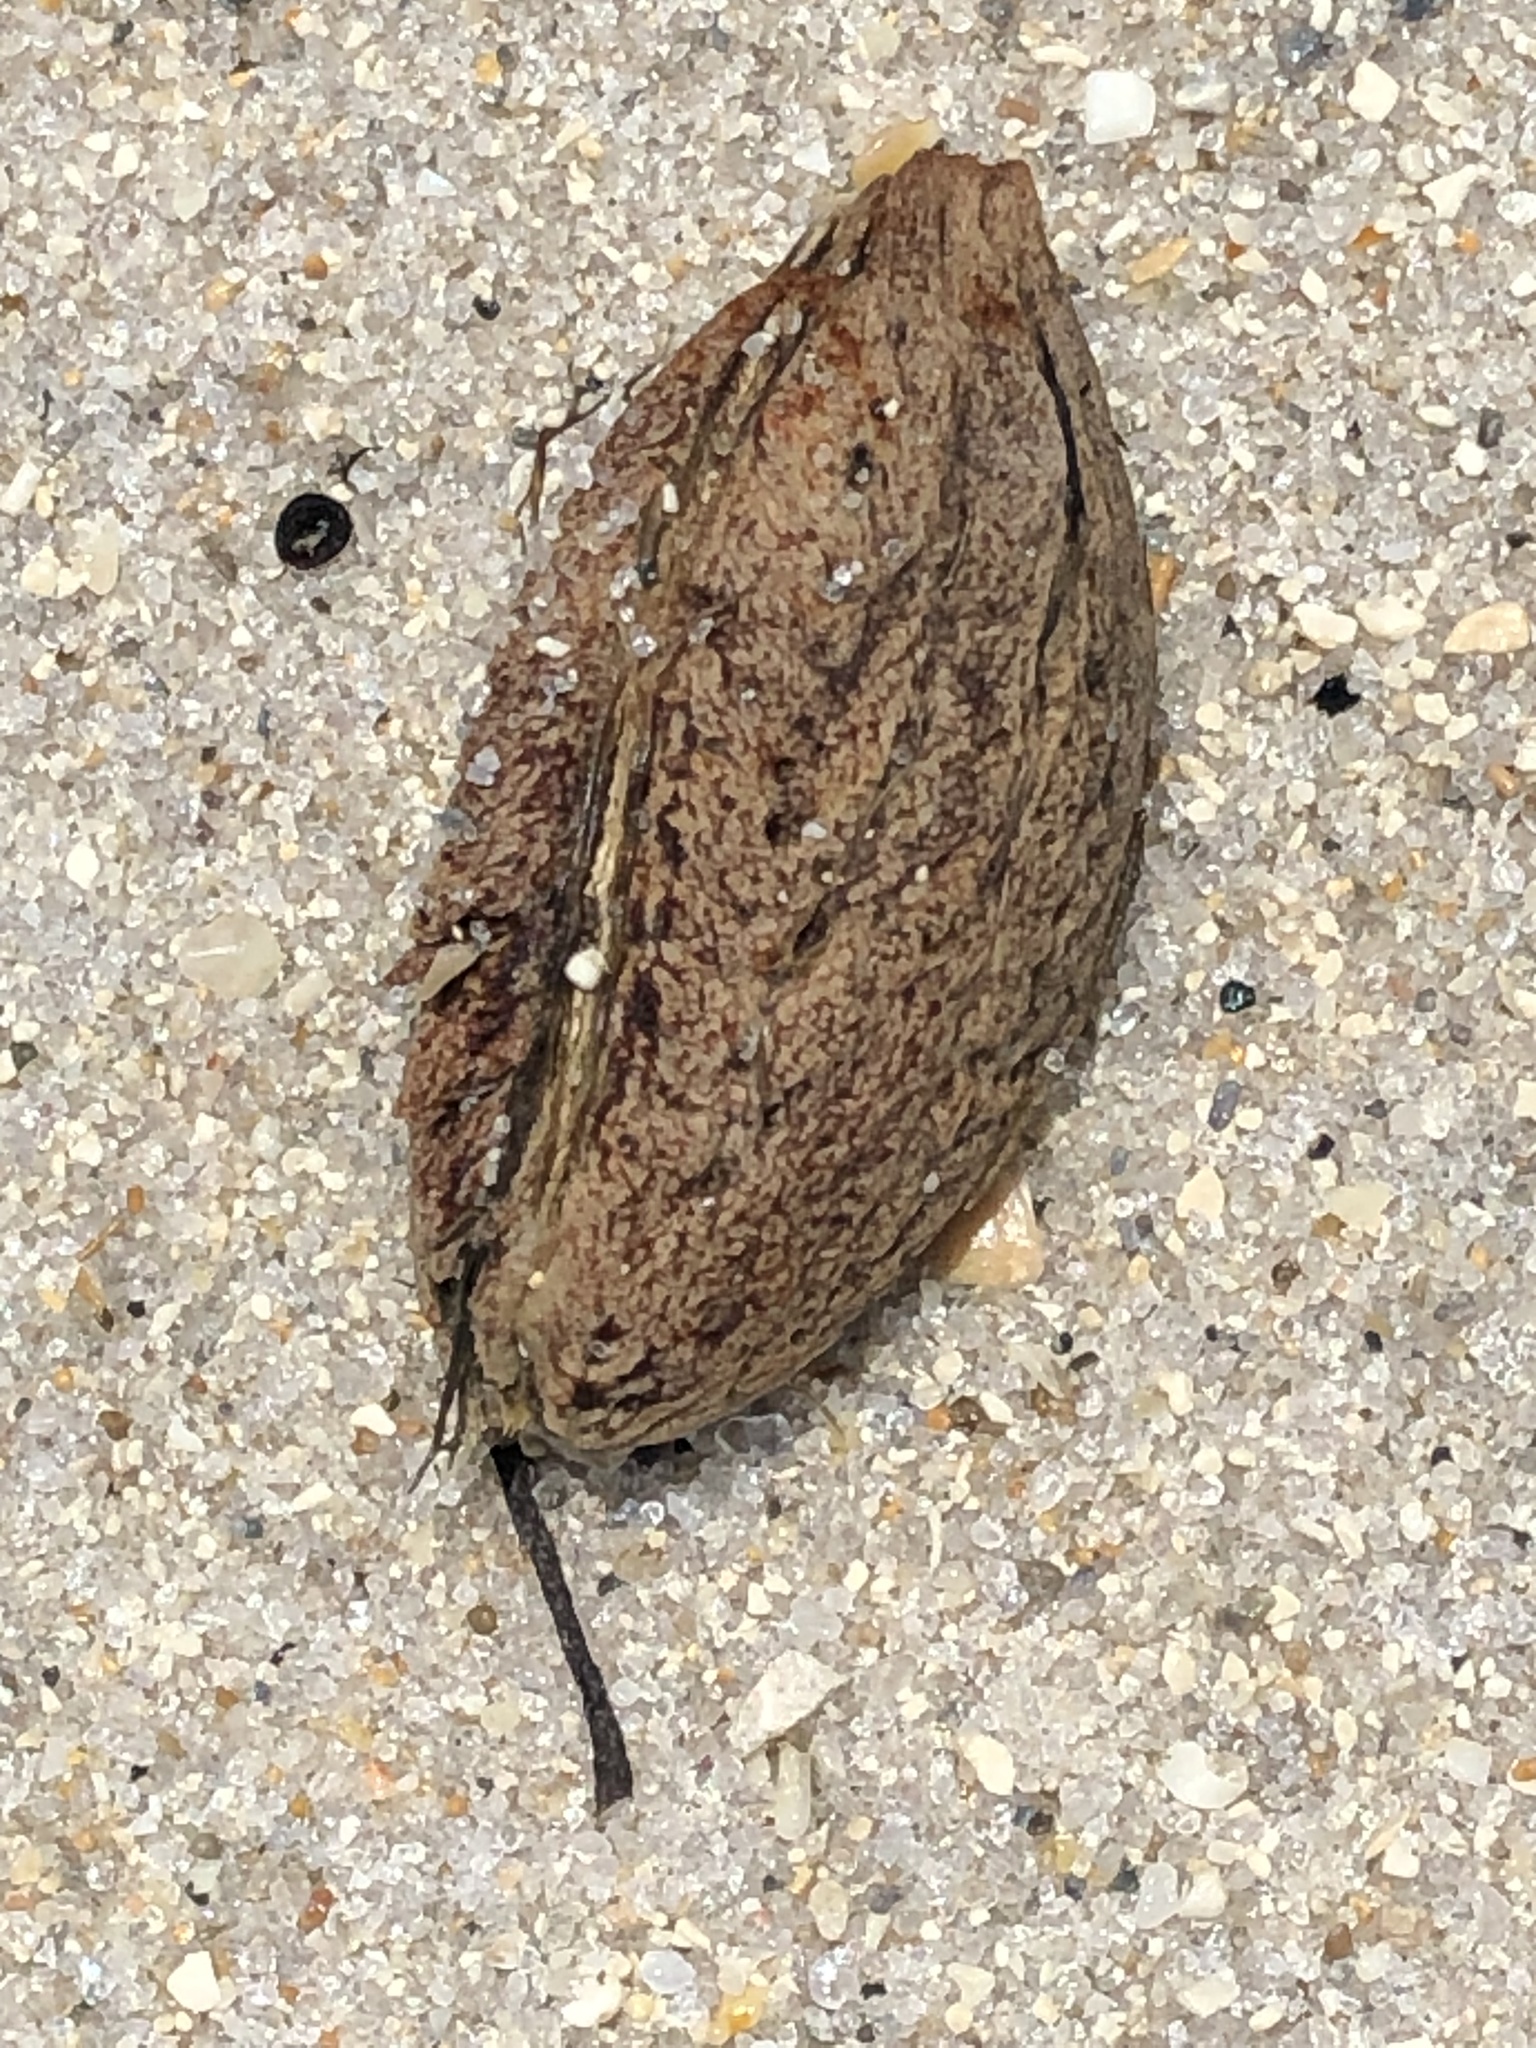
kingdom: Plantae
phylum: Tracheophyta
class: Magnoliopsida
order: Myrtales
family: Combretaceae
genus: Terminalia
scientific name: Terminalia catappa
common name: Tropical almond
